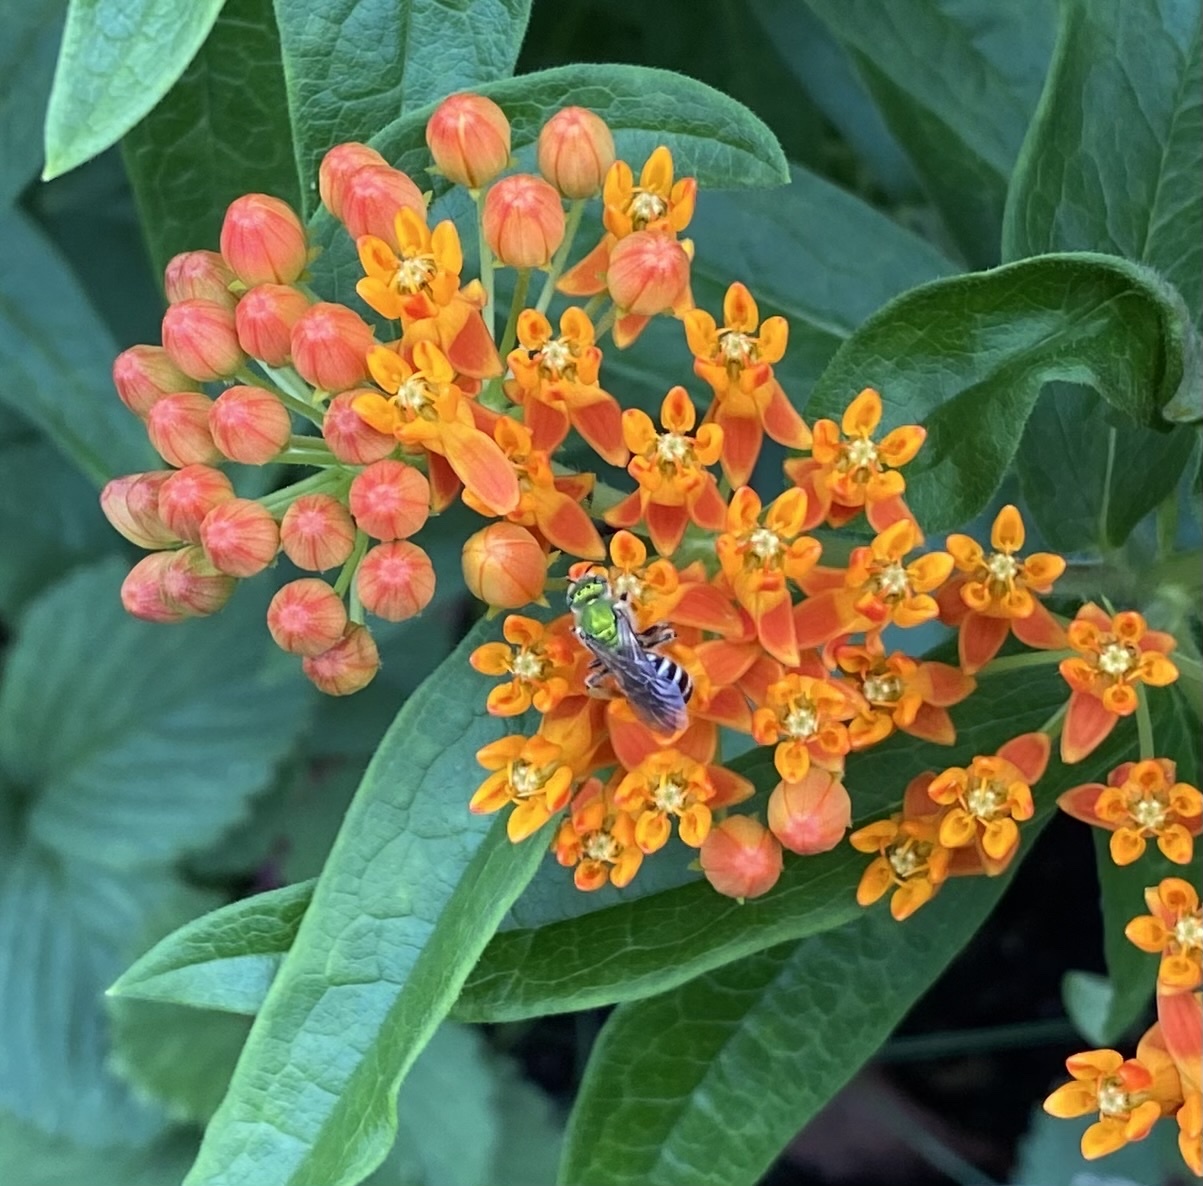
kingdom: Animalia
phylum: Arthropoda
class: Insecta
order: Hymenoptera
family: Halictidae
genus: Agapostemon
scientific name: Agapostemon virescens
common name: Bicolored striped sweat bee
